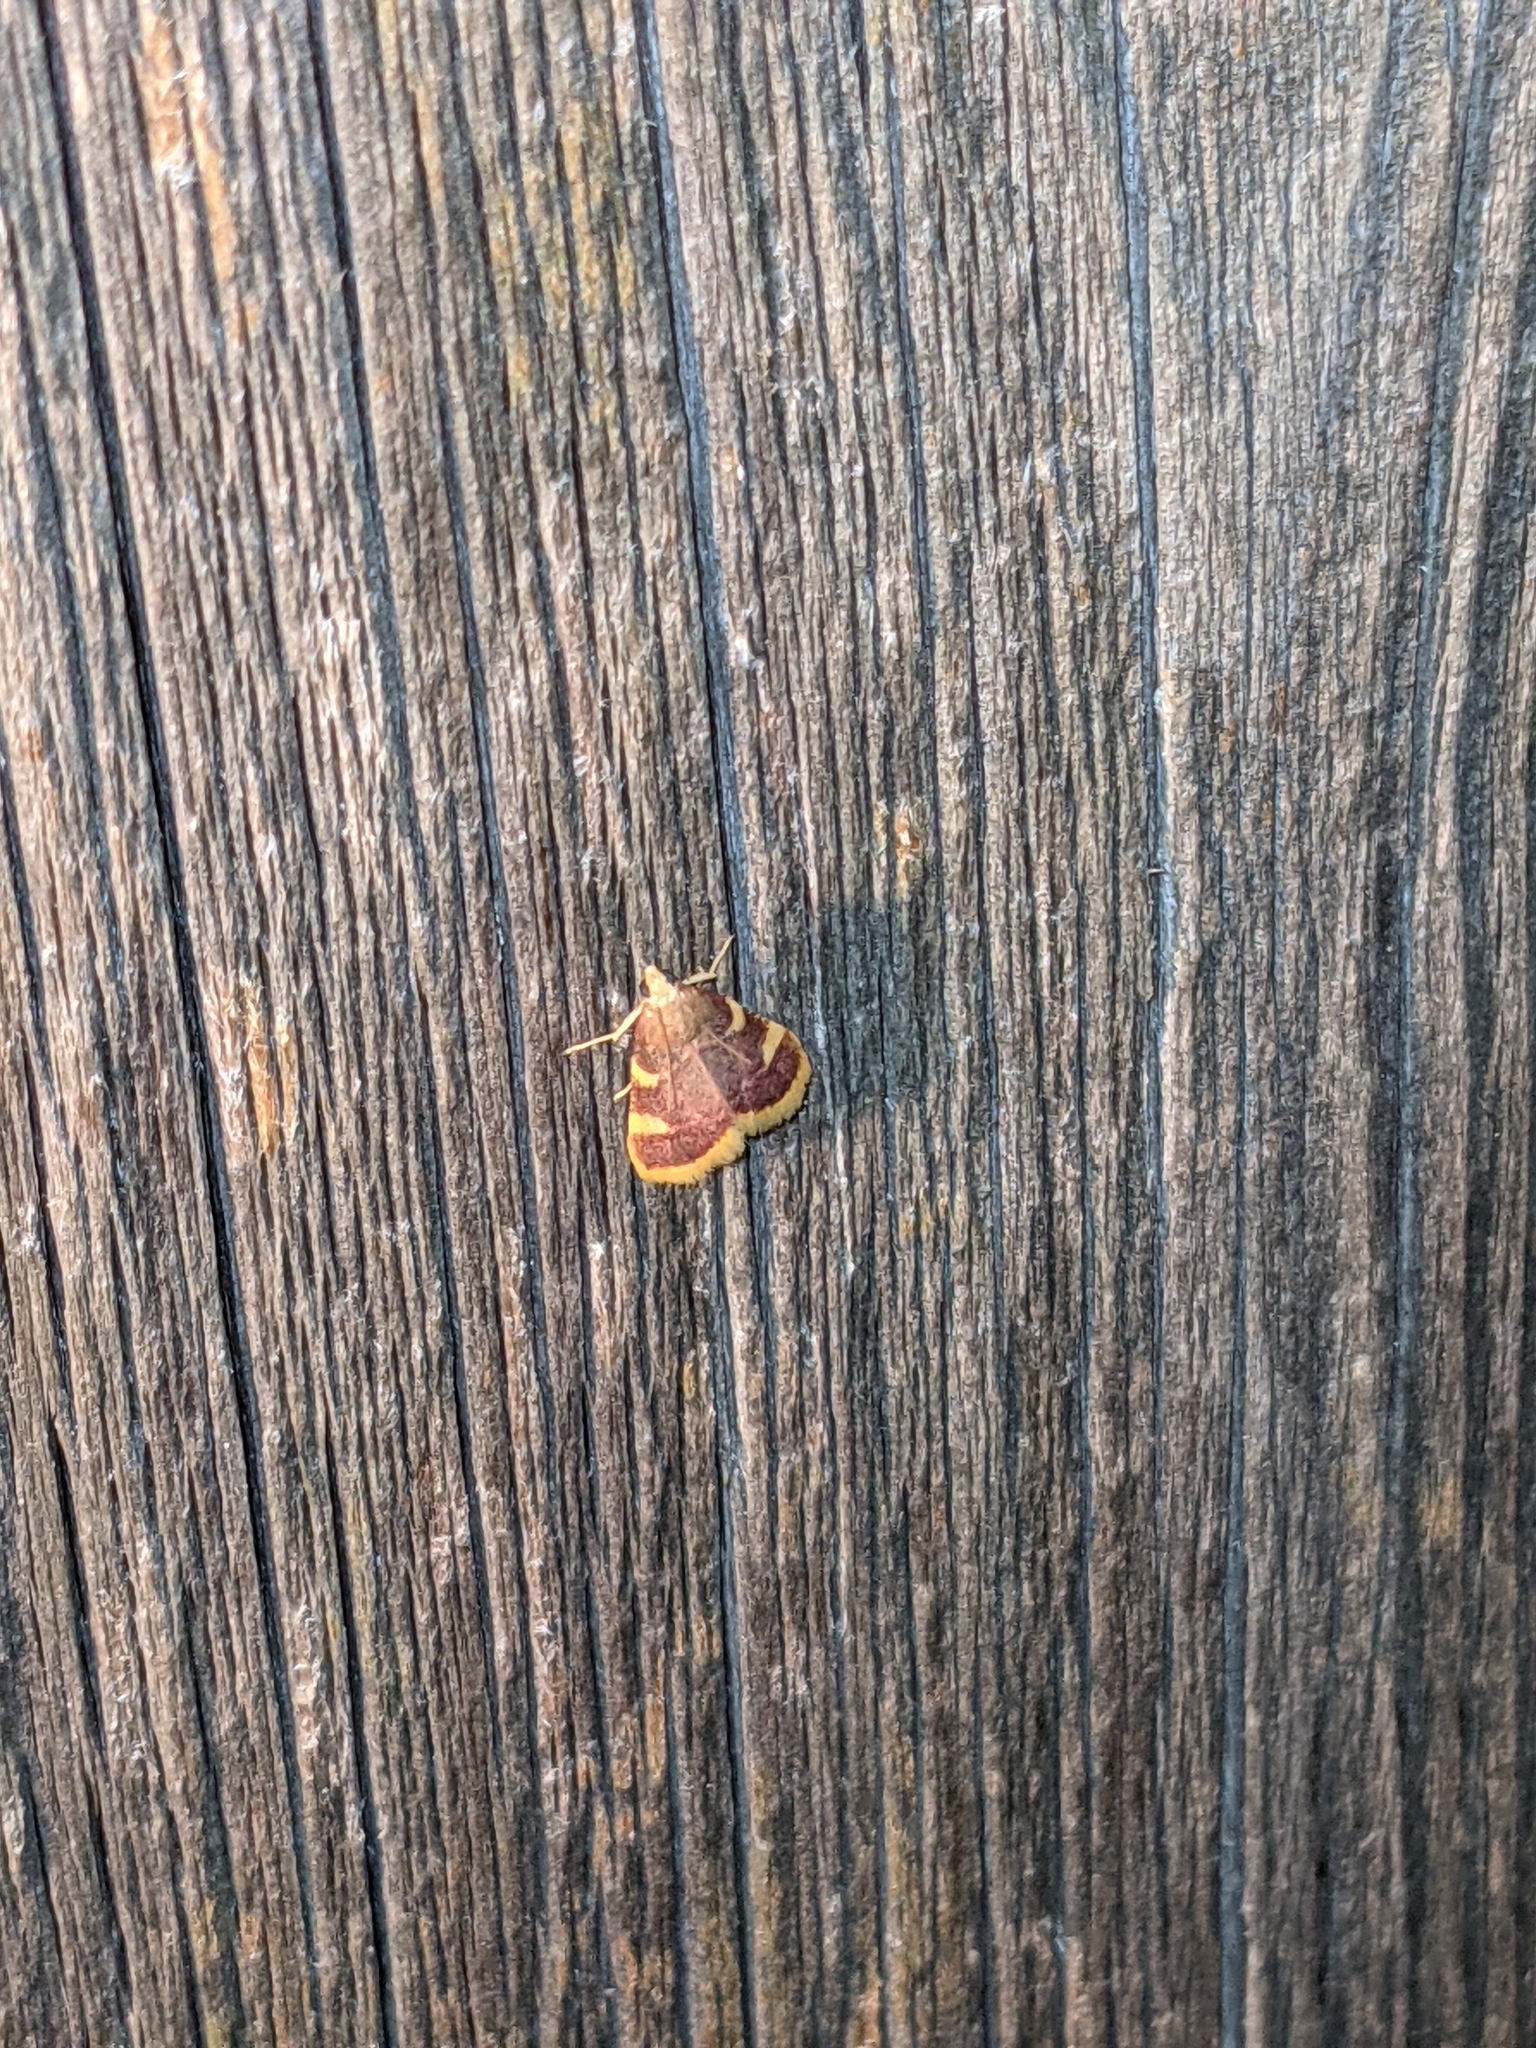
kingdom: Animalia
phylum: Arthropoda
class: Insecta
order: Lepidoptera
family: Pyralidae
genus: Hypsopygia
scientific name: Hypsopygia costalis
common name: Gold triangle
